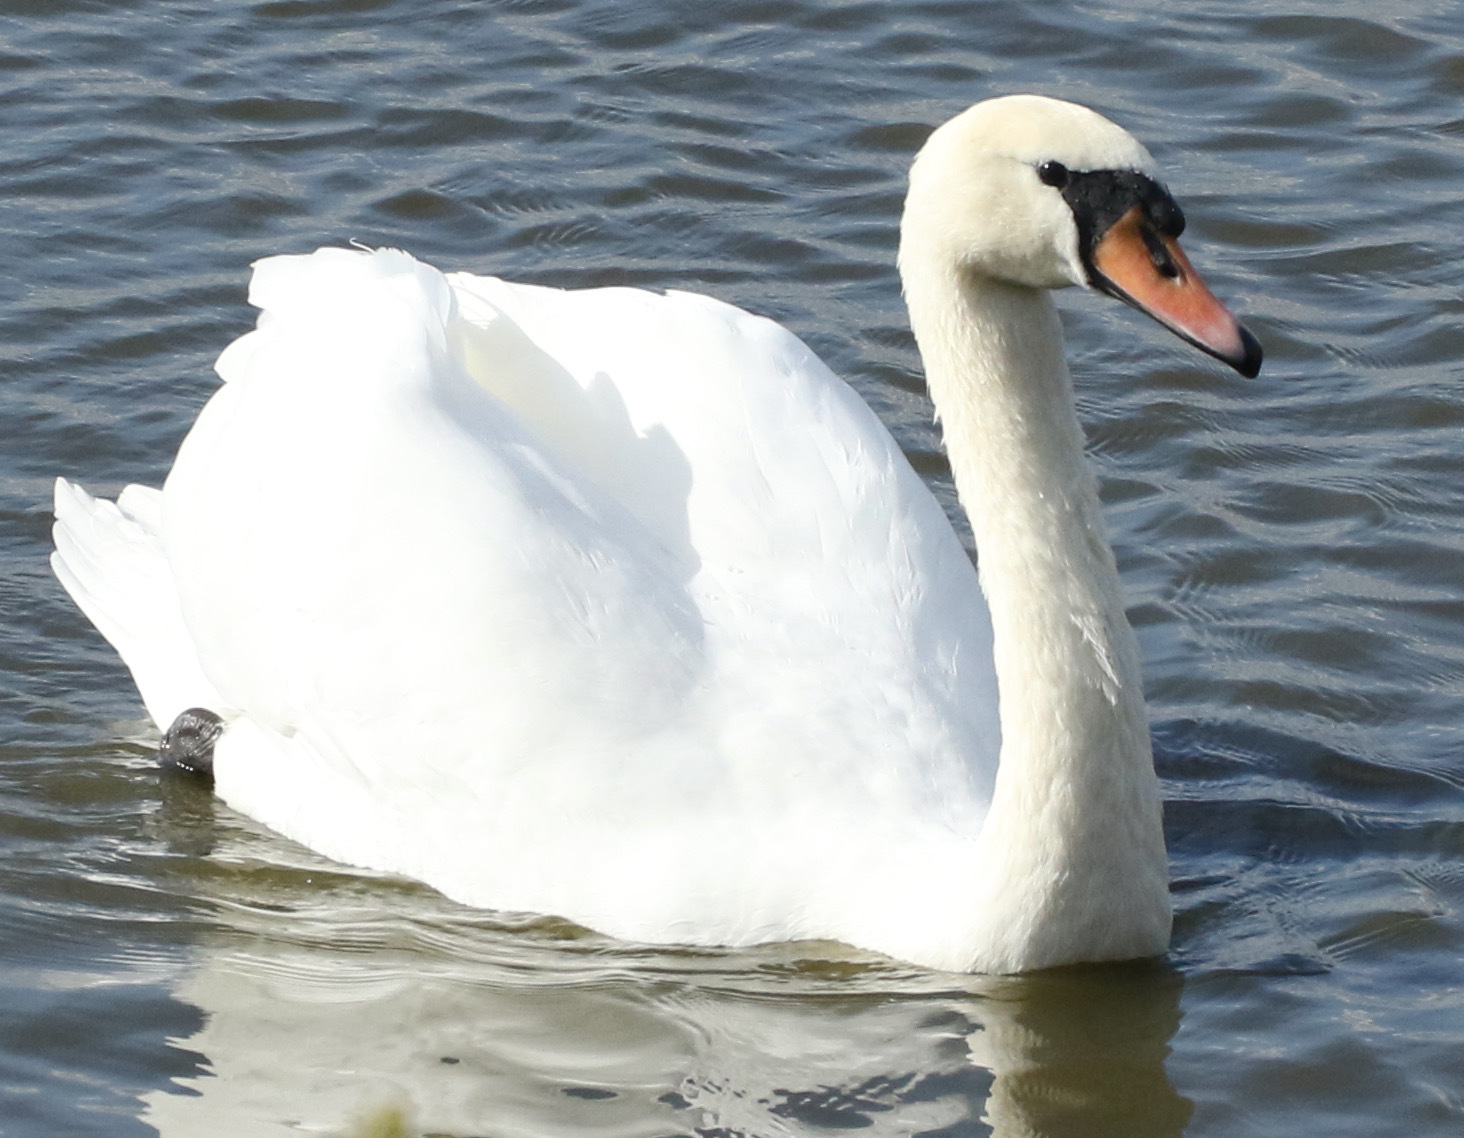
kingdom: Animalia
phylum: Chordata
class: Aves
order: Anseriformes
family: Anatidae
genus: Cygnus
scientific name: Cygnus olor
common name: Mute swan
